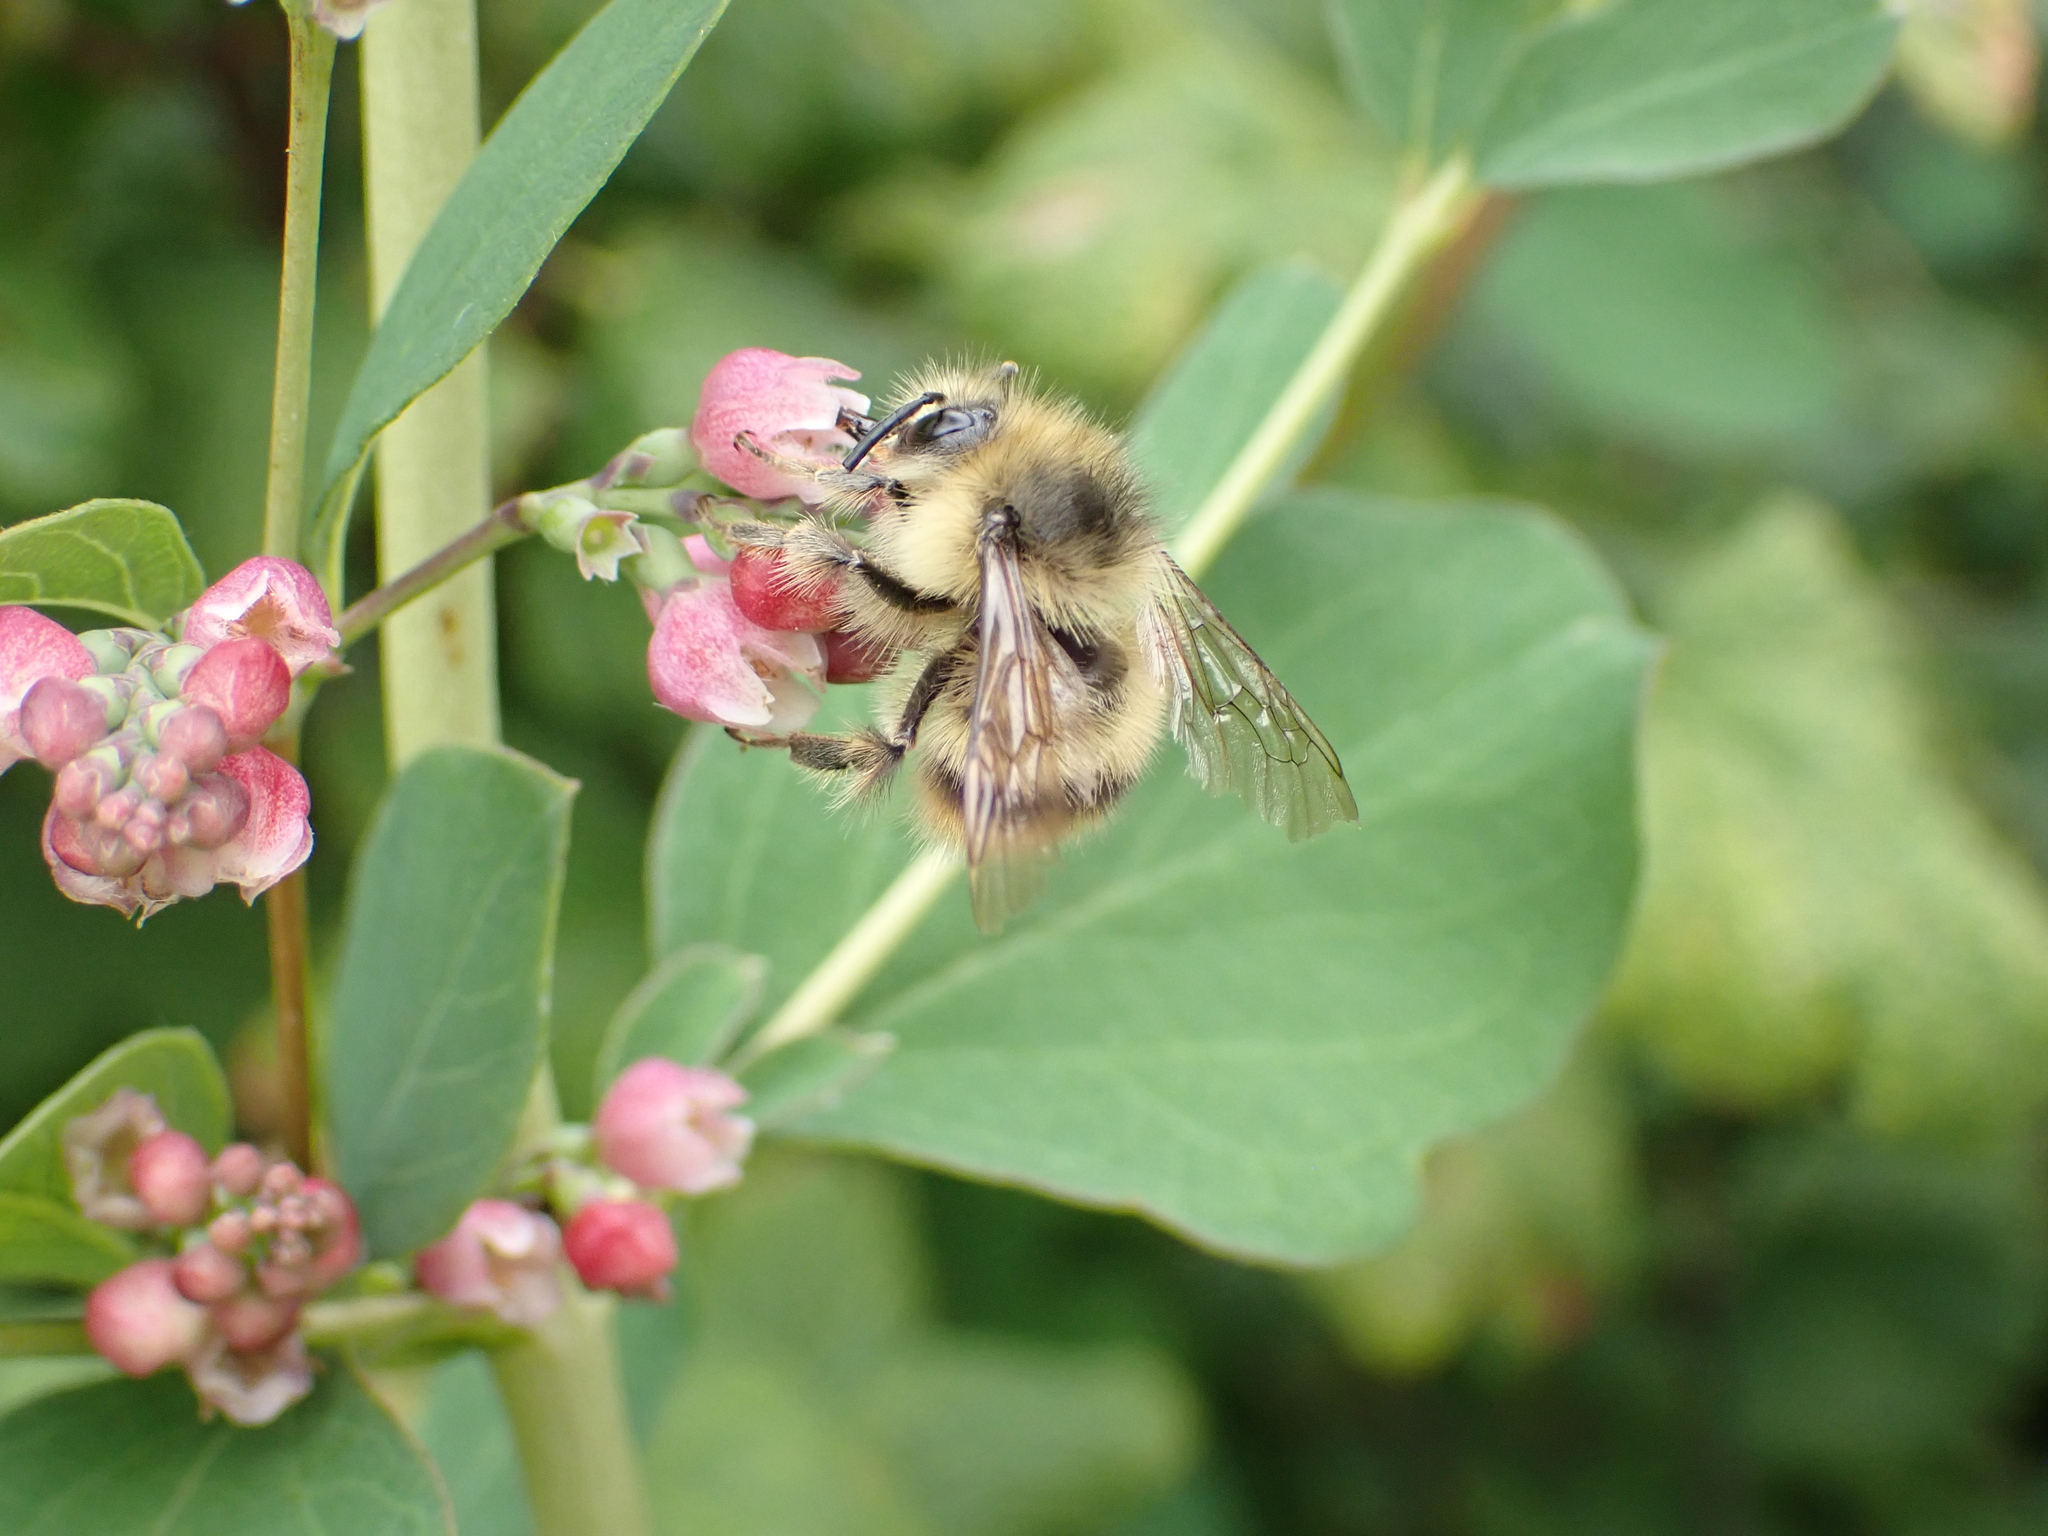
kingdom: Animalia
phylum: Arthropoda
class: Insecta
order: Hymenoptera
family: Apidae
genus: Bombus
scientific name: Bombus mixtus
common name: Fuzzy-horned bumble bee
